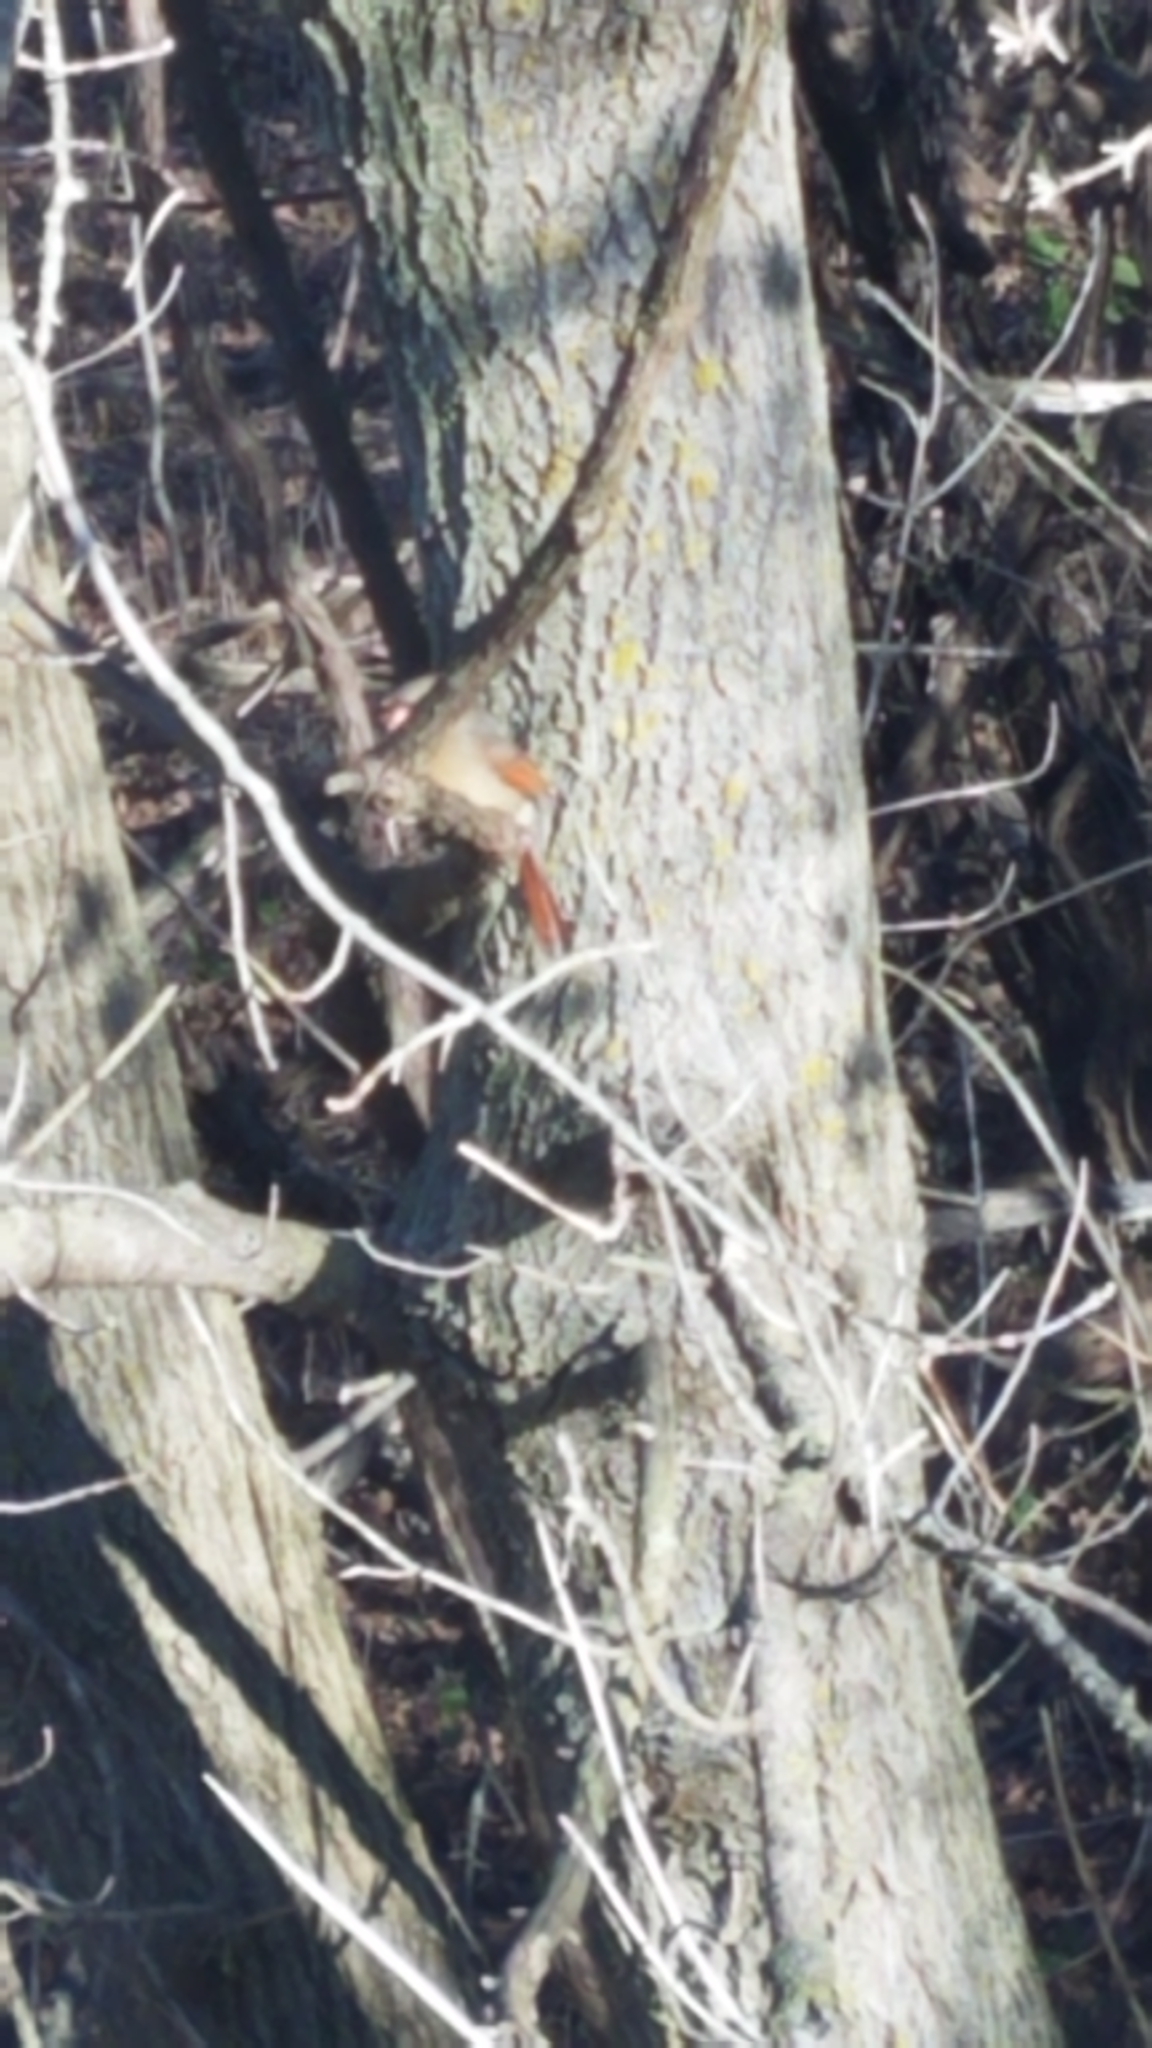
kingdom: Animalia
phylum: Chordata
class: Aves
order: Passeriformes
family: Cardinalidae
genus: Cardinalis
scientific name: Cardinalis cardinalis
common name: Northern cardinal
